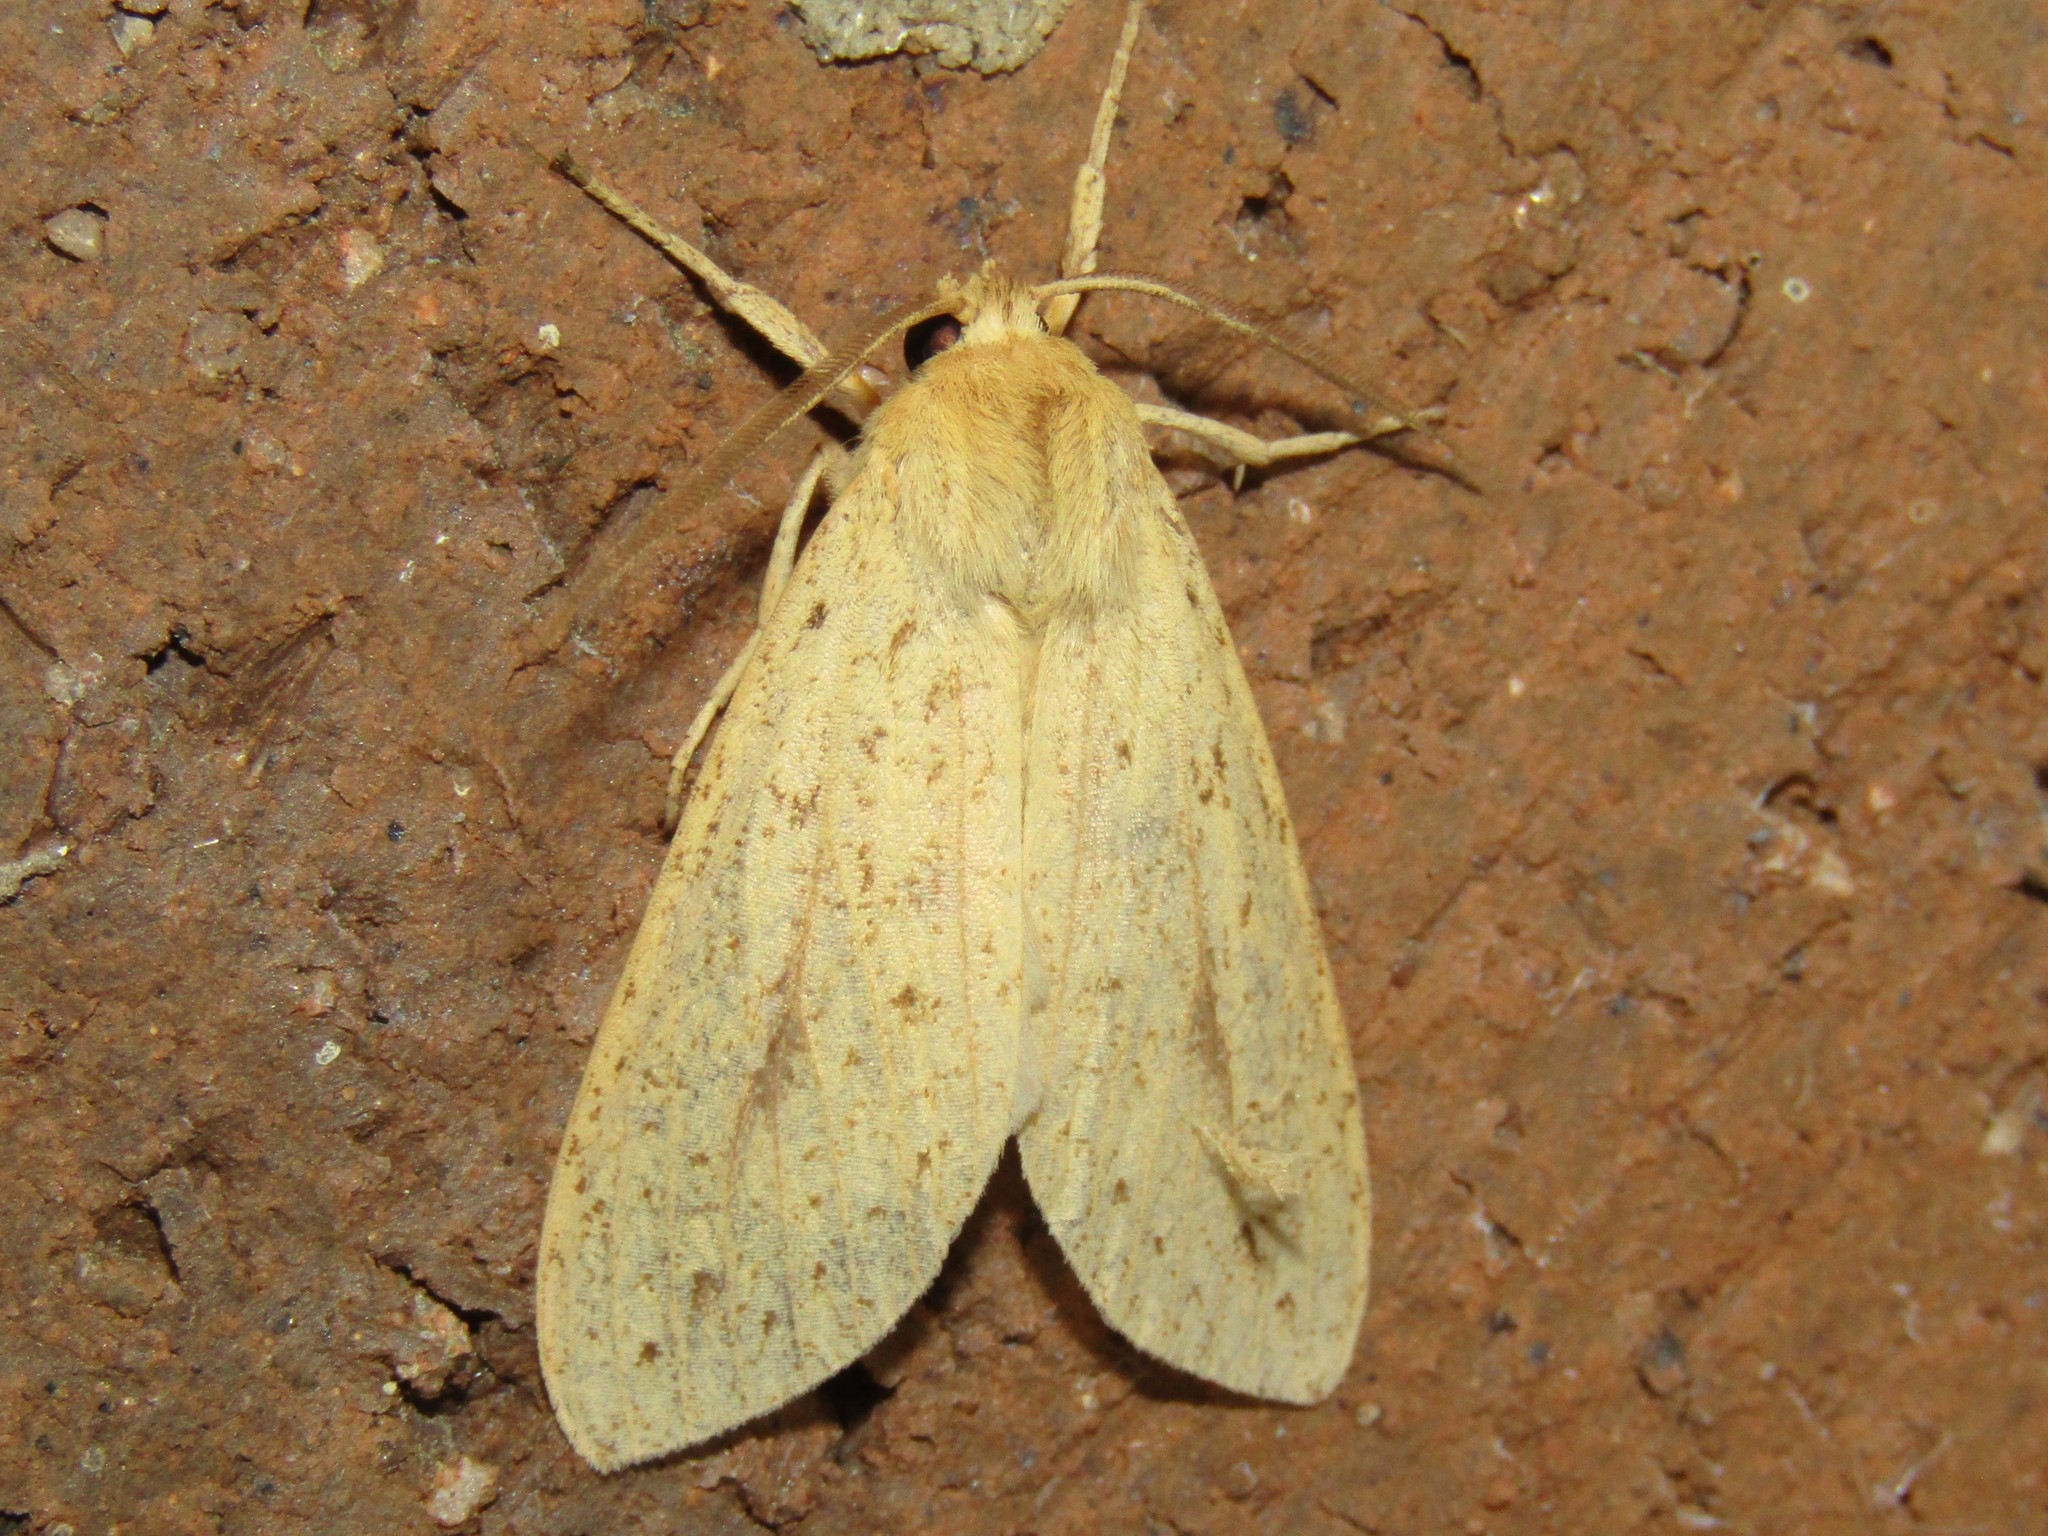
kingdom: Animalia
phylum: Arthropoda
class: Insecta
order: Lepidoptera
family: Erebidae
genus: Leucanopsis
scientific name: Leucanopsis longa
